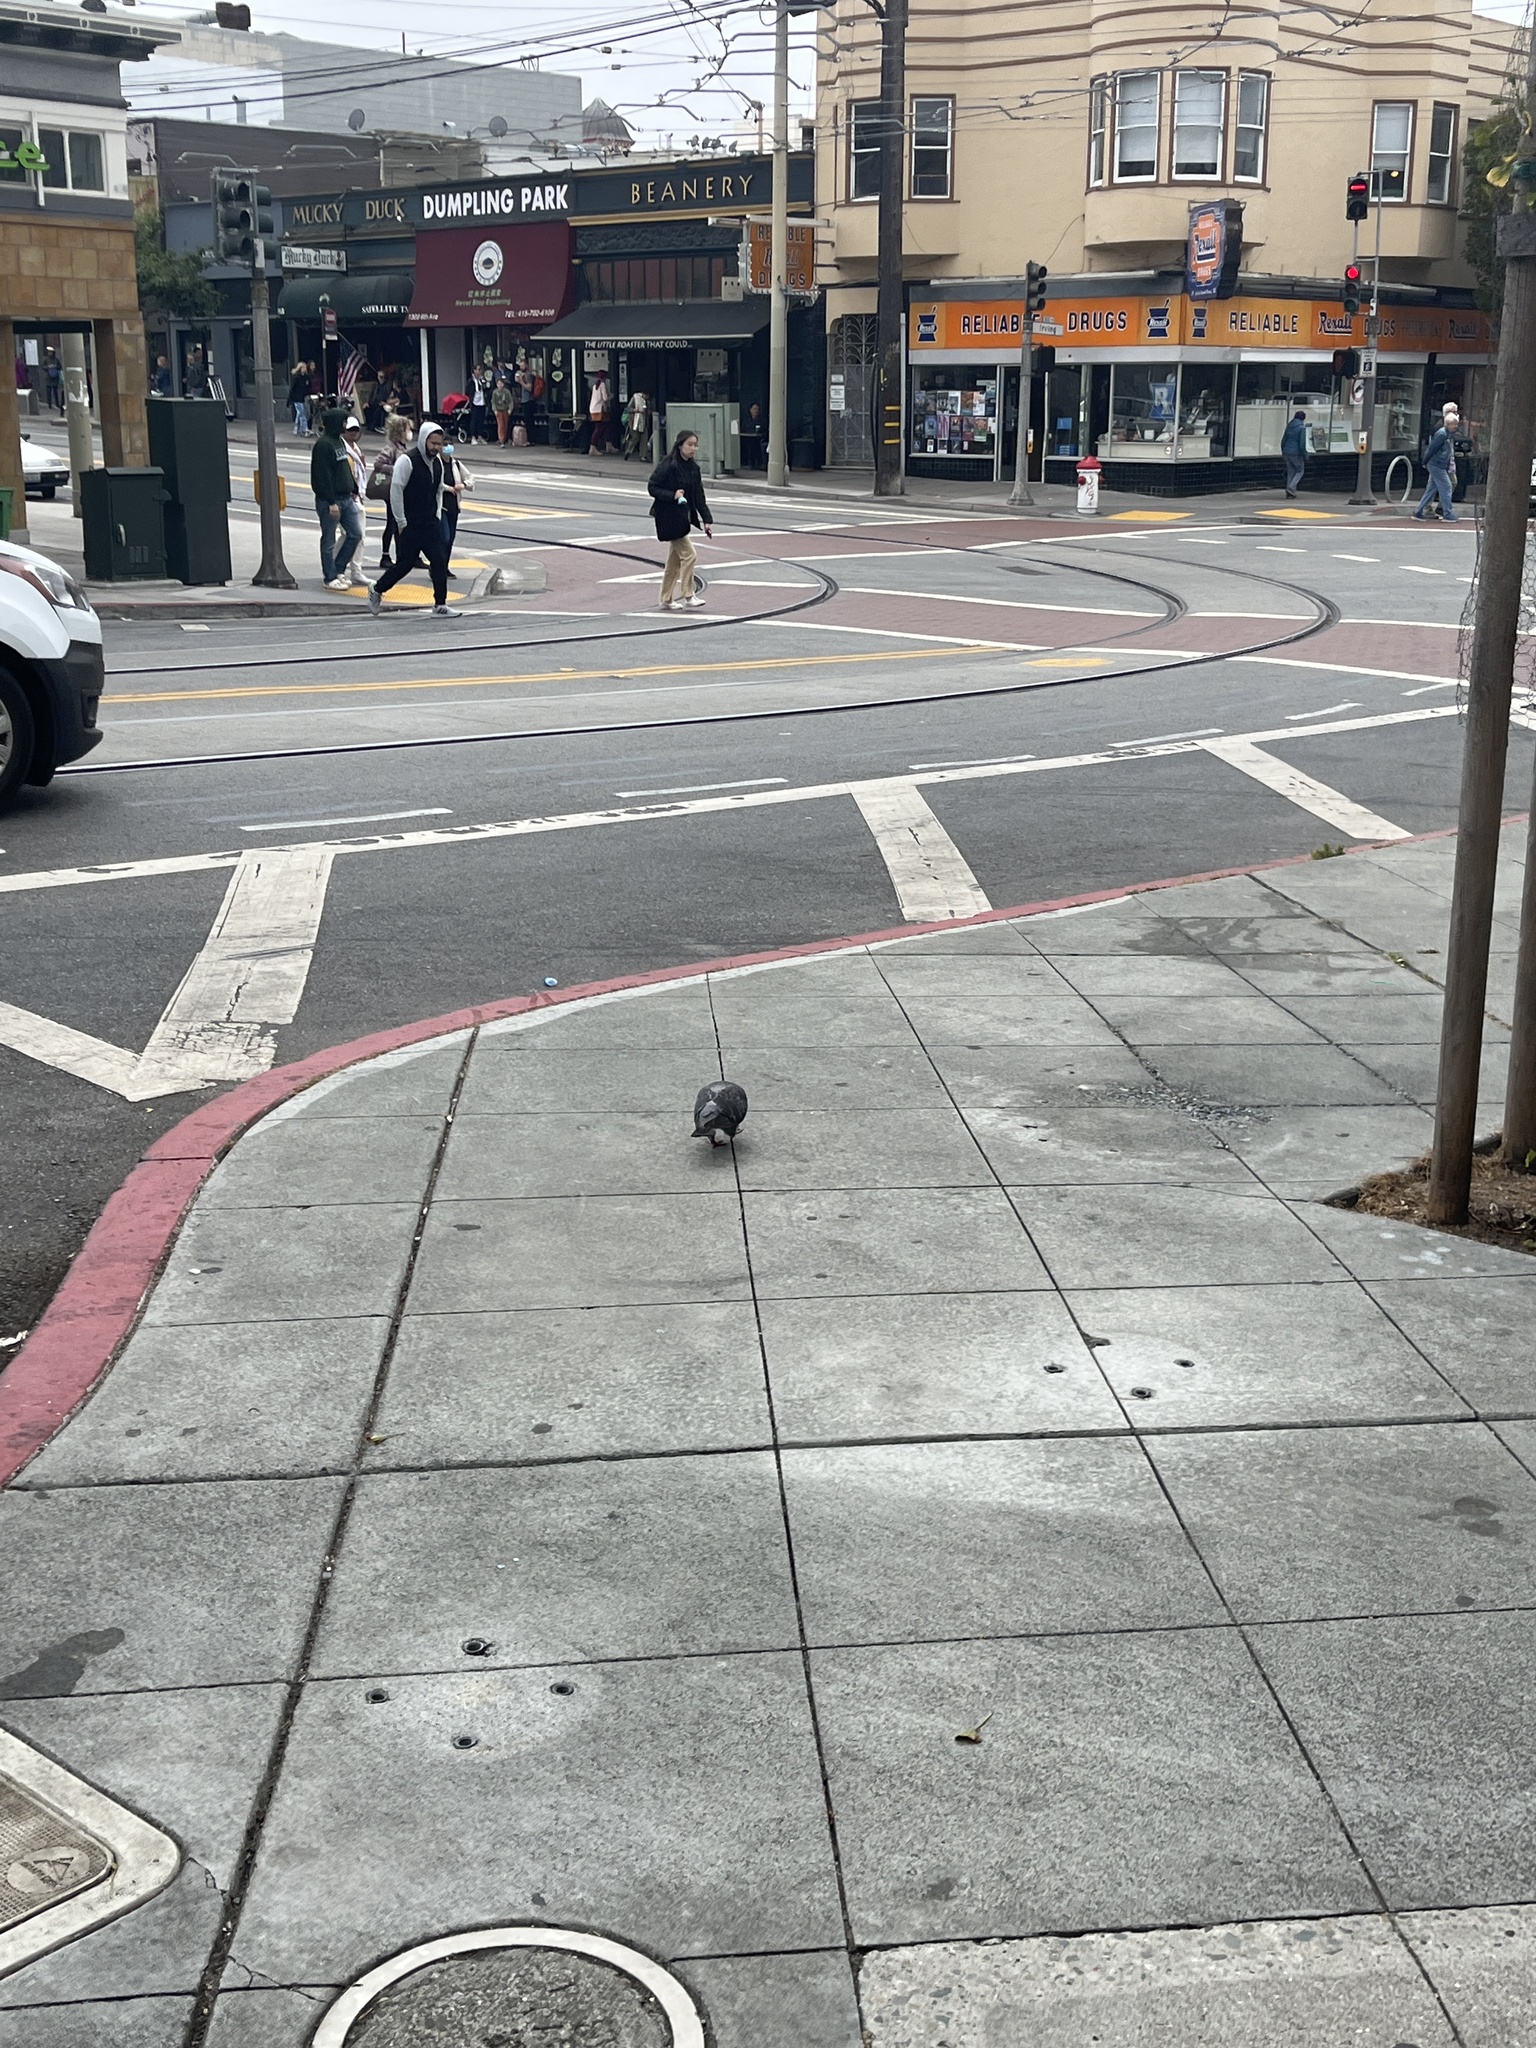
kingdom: Animalia
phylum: Chordata
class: Aves
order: Columbiformes
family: Columbidae
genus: Columba
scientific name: Columba livia
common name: Rock pigeon
